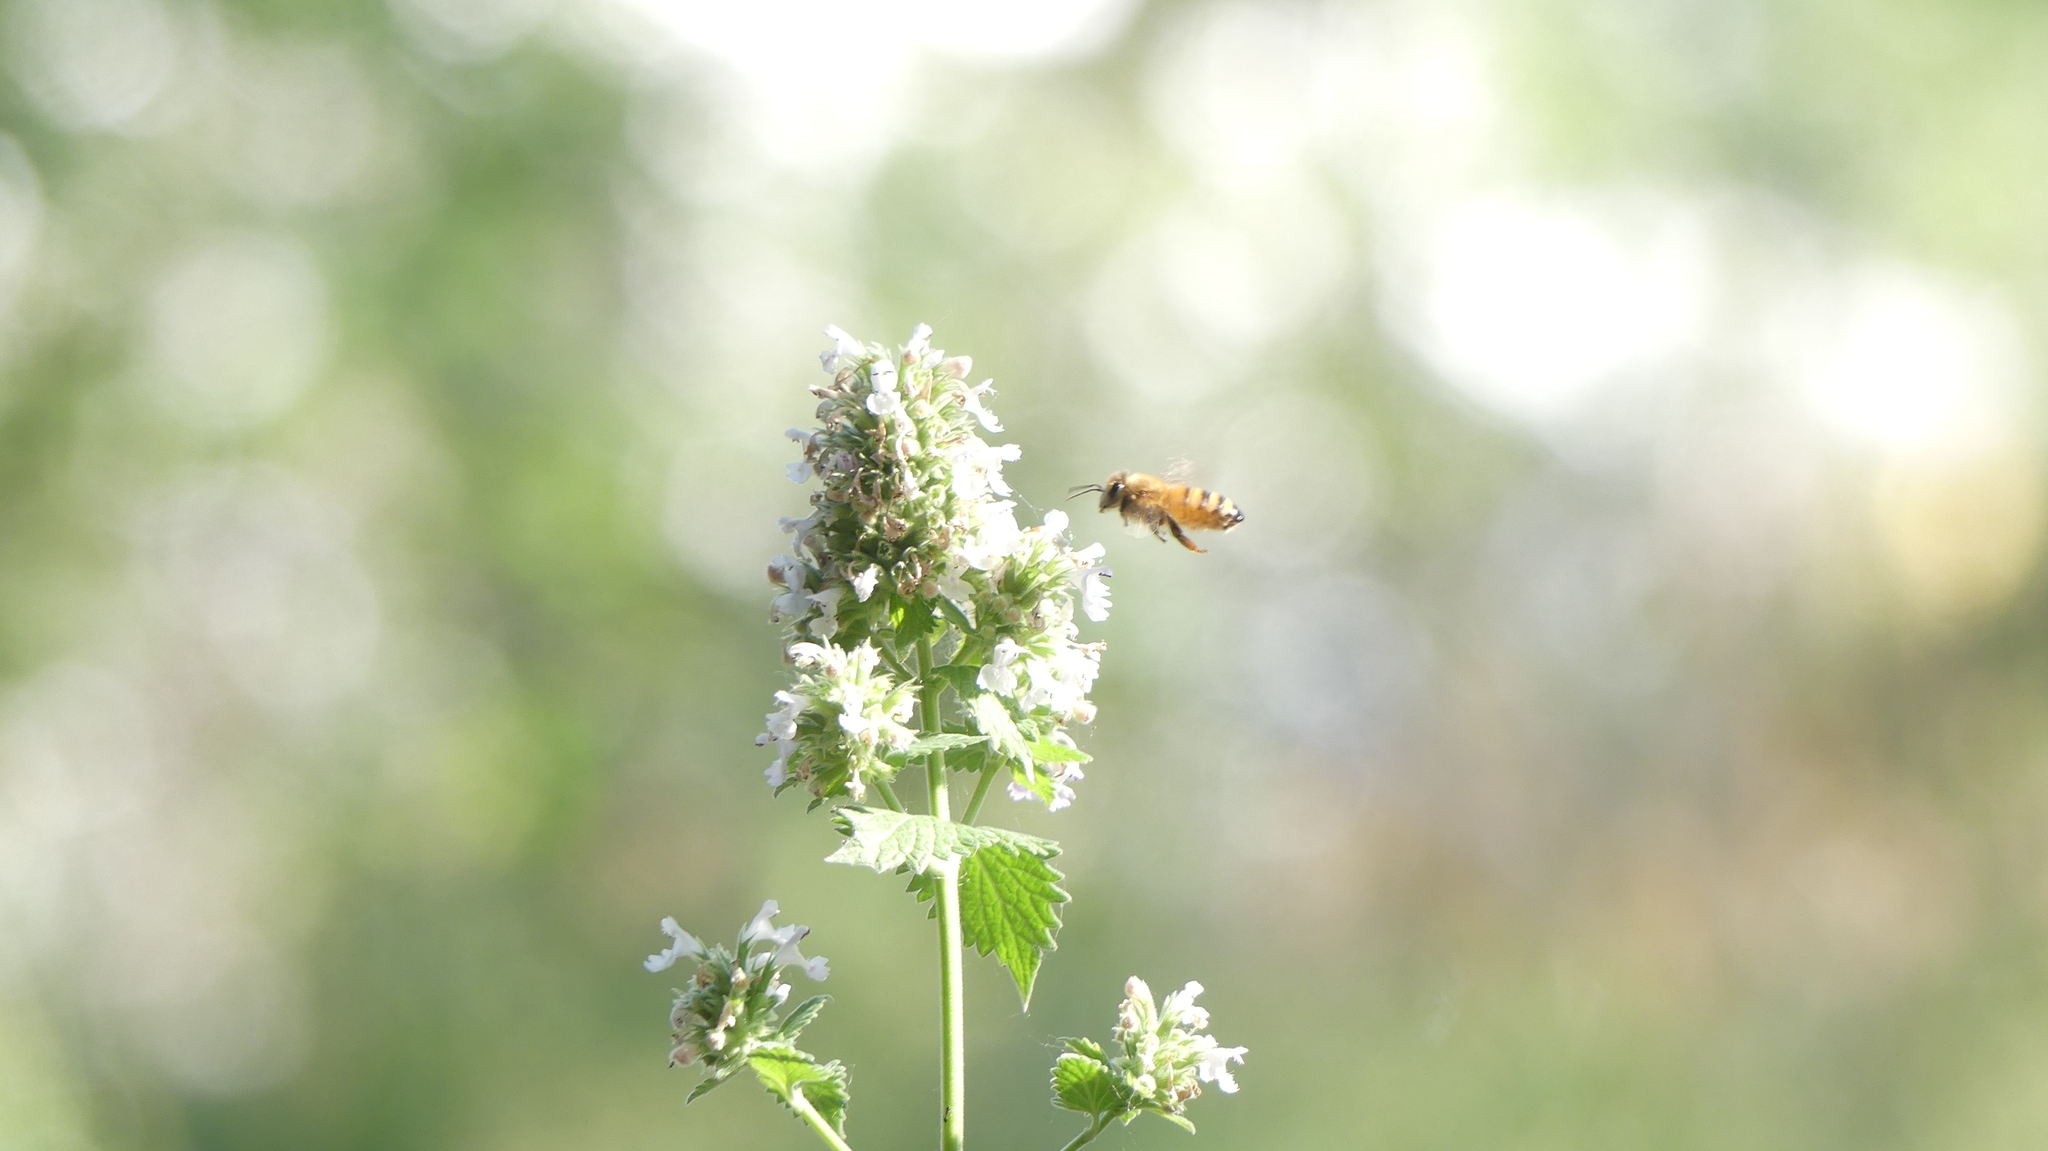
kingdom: Plantae
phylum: Tracheophyta
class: Magnoliopsida
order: Lamiales
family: Lamiaceae
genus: Nepeta
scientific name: Nepeta cataria
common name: Catnip
